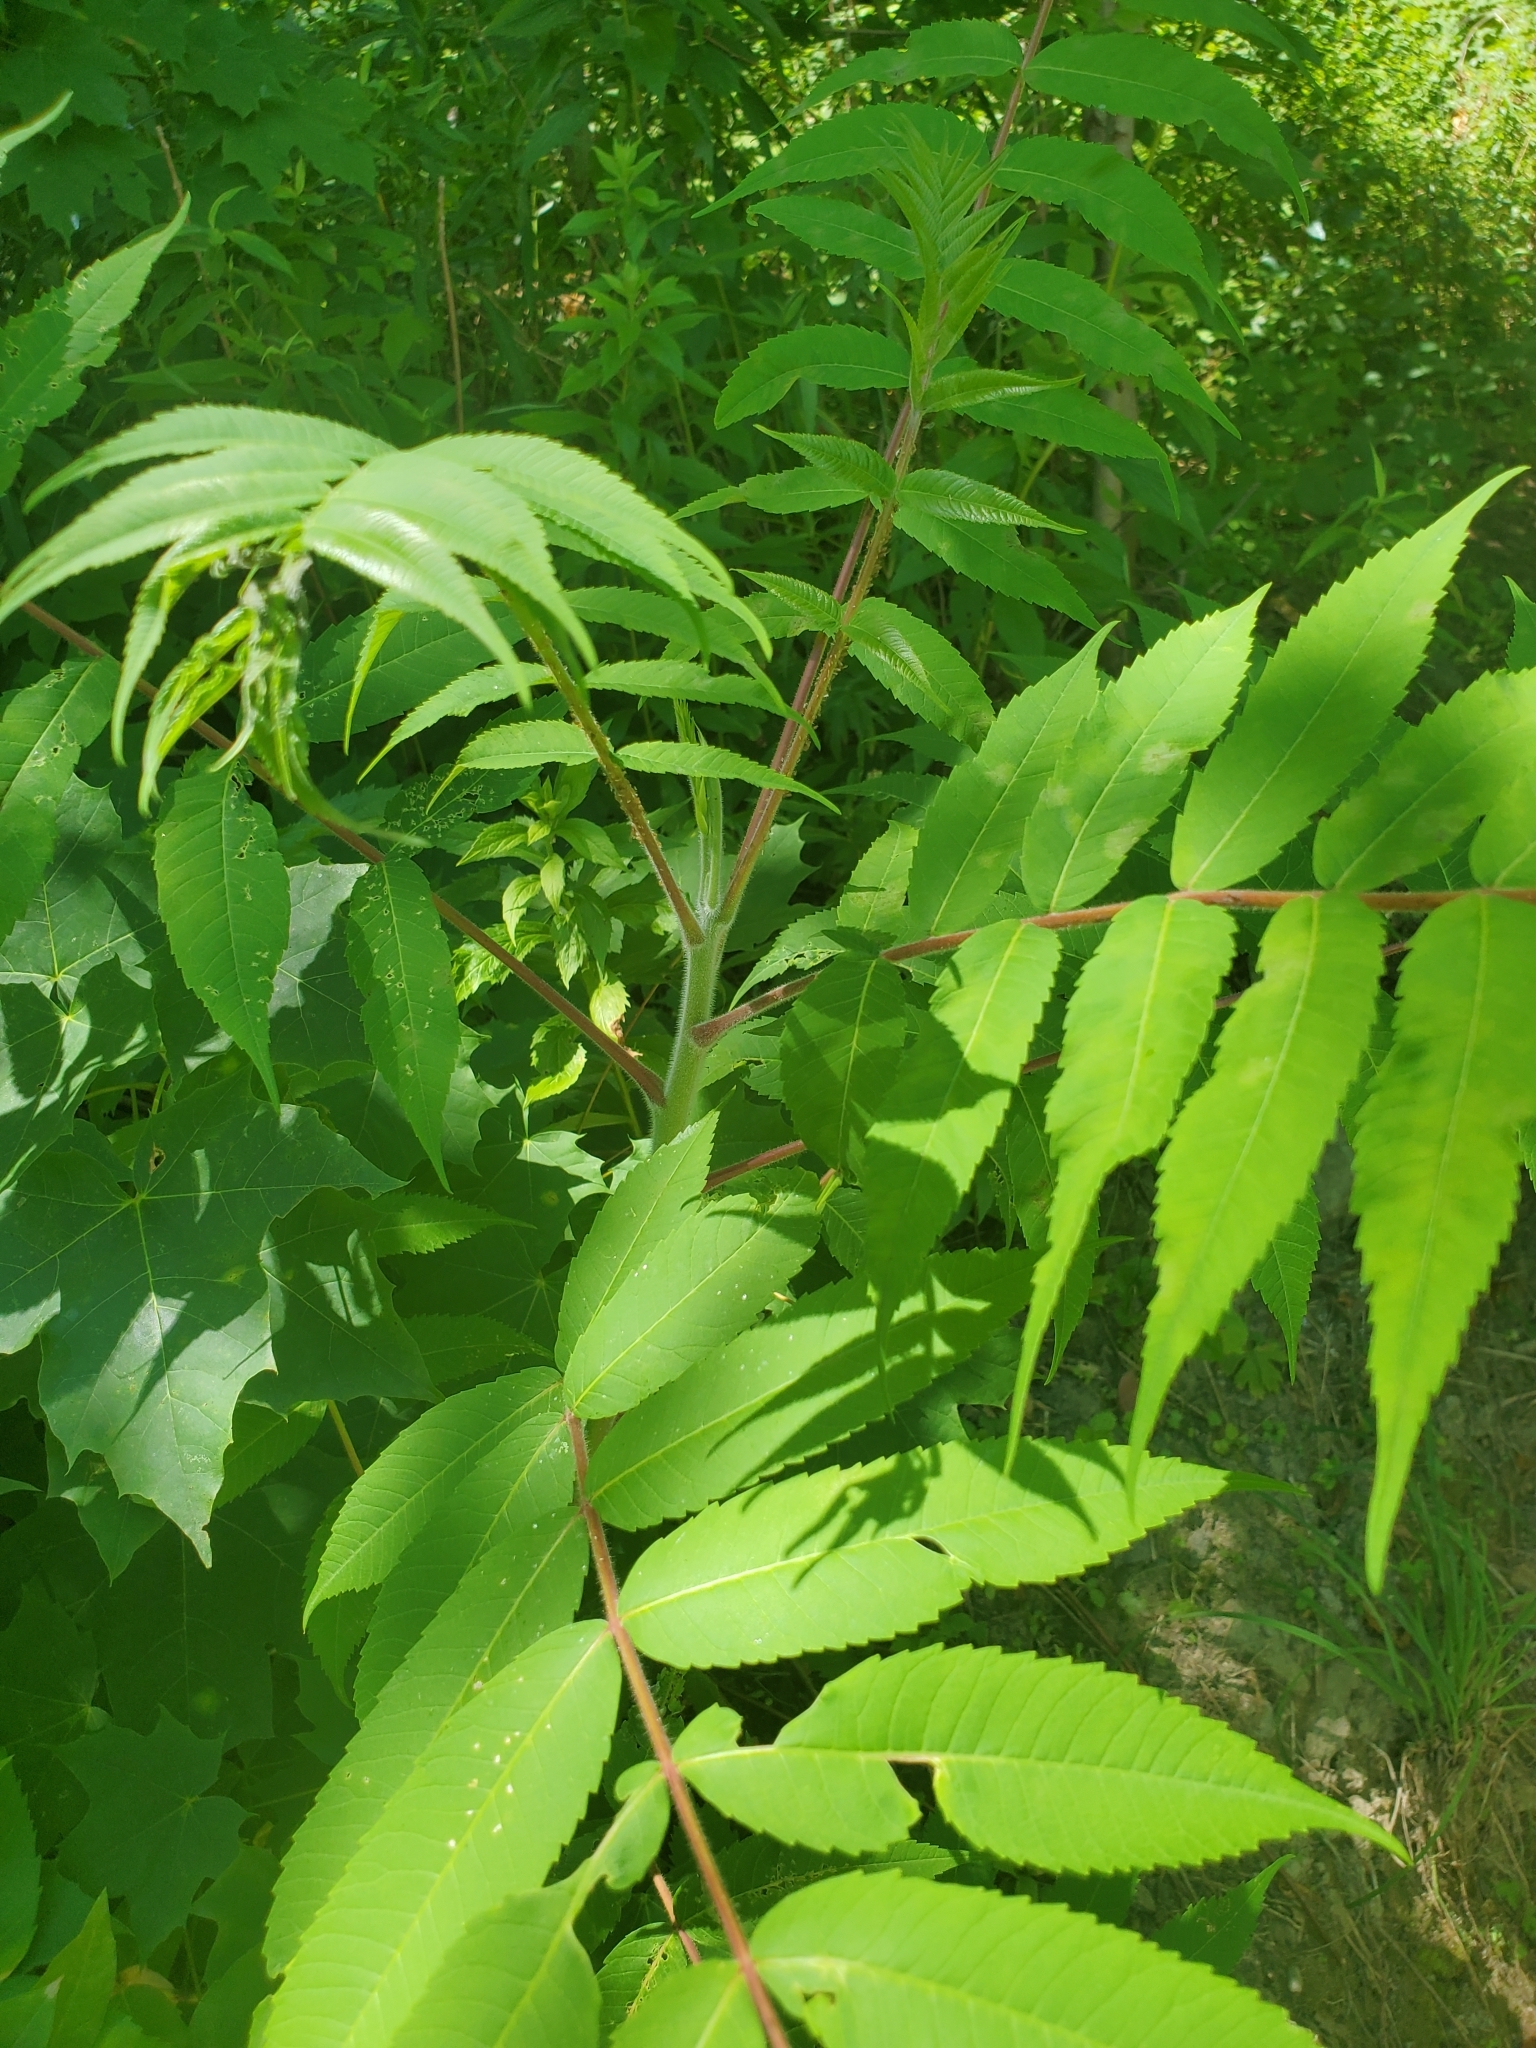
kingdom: Plantae
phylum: Tracheophyta
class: Magnoliopsida
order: Sapindales
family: Anacardiaceae
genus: Rhus
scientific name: Rhus typhina
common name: Staghorn sumac
